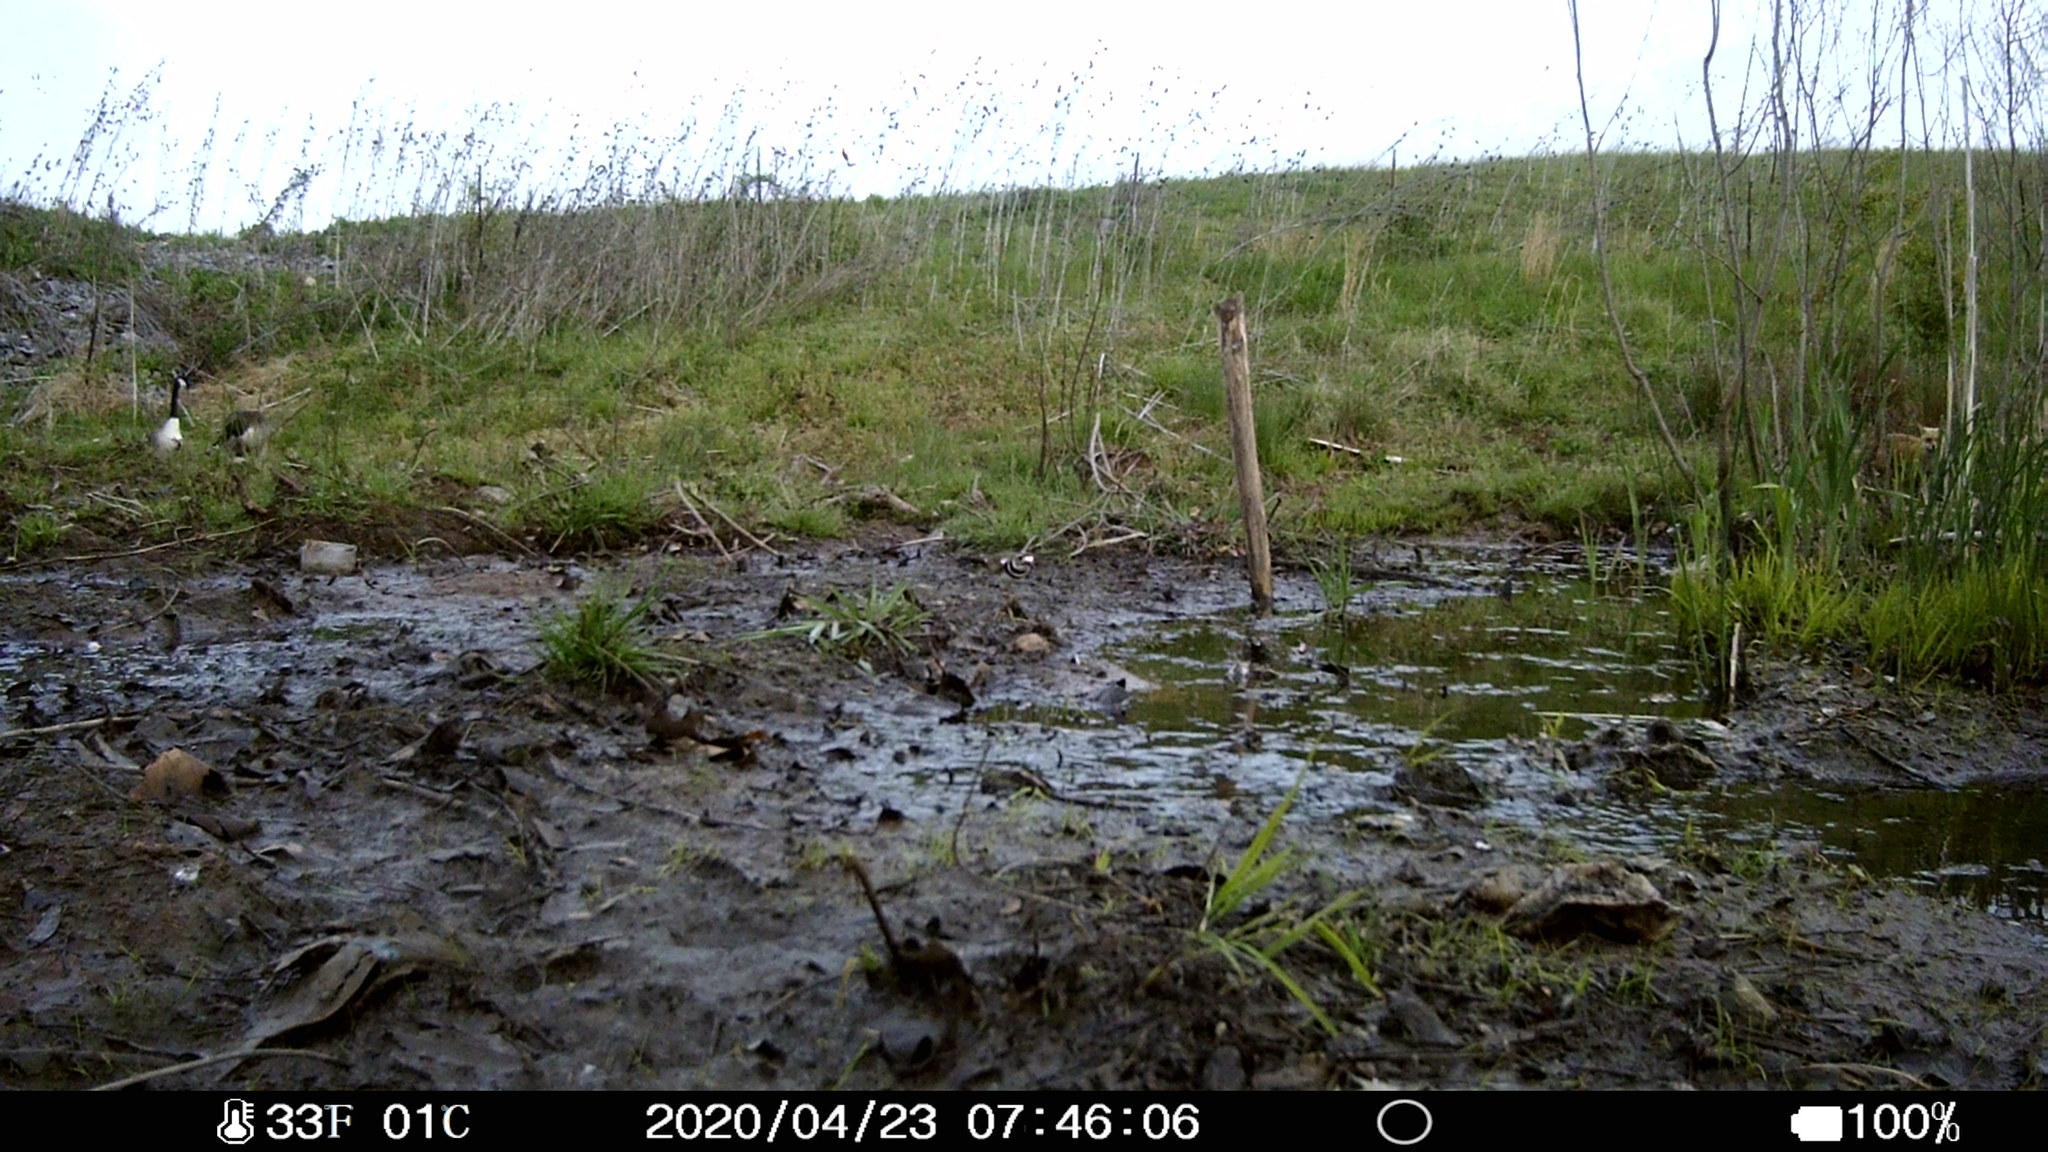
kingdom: Animalia
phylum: Chordata
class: Aves
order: Charadriiformes
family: Charadriidae
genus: Charadrius
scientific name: Charadrius vociferus
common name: Killdeer
